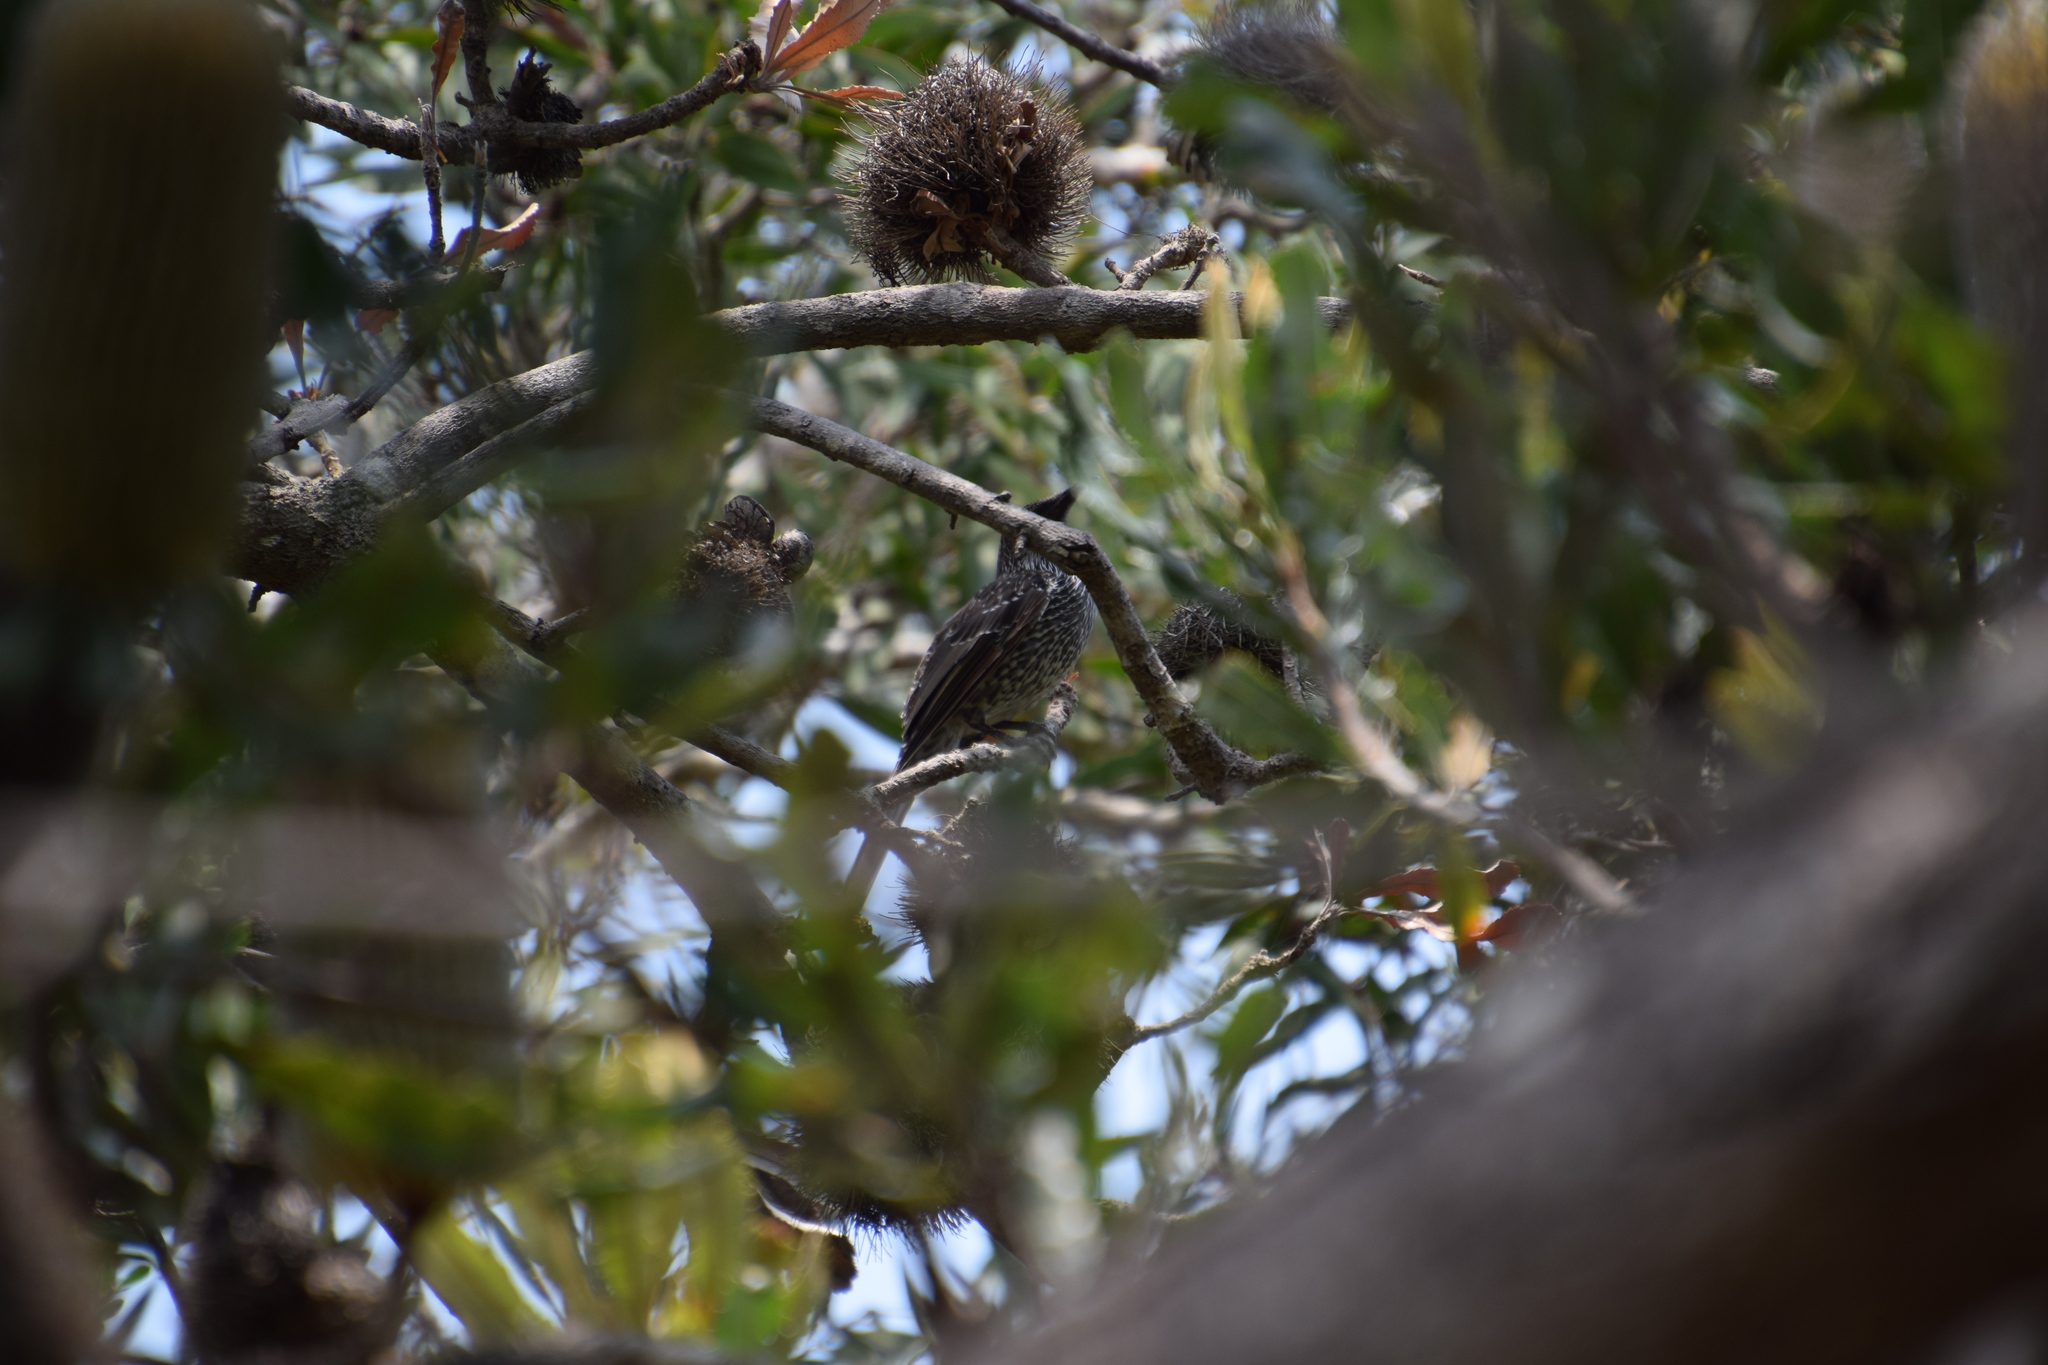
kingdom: Animalia
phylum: Chordata
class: Aves
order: Passeriformes
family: Meliphagidae
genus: Anthochaera
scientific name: Anthochaera chrysoptera
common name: Little wattlebird
